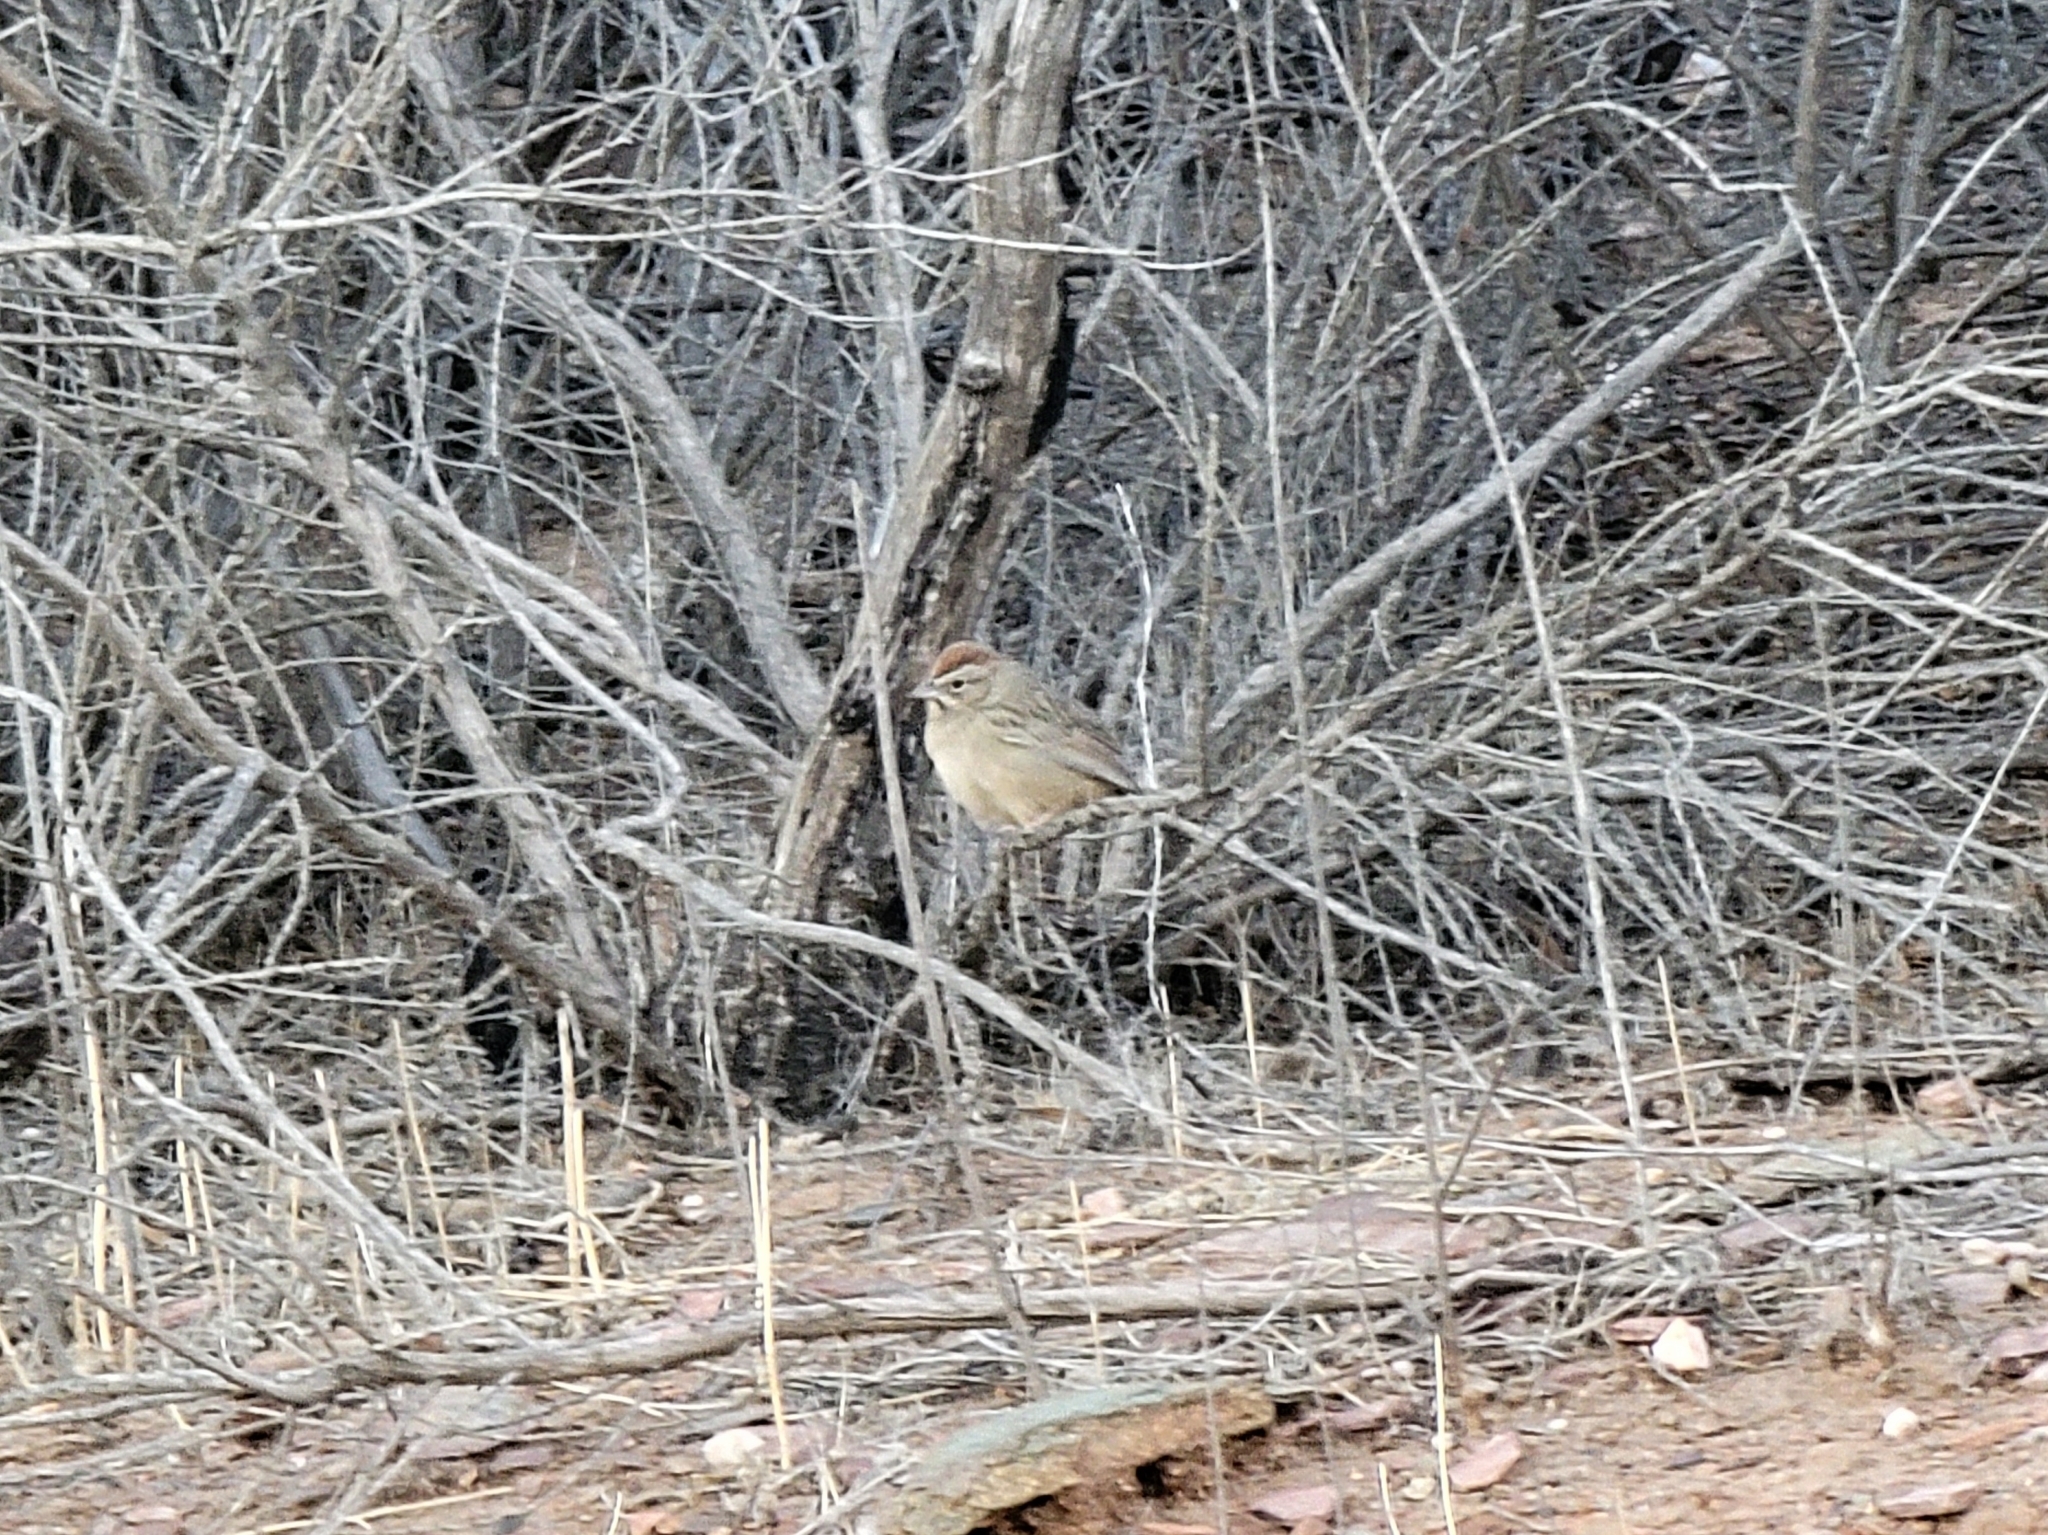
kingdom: Animalia
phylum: Chordata
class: Aves
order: Passeriformes
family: Passerellidae
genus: Aimophila
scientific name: Aimophila ruficeps
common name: Rufous-crowned sparrow
